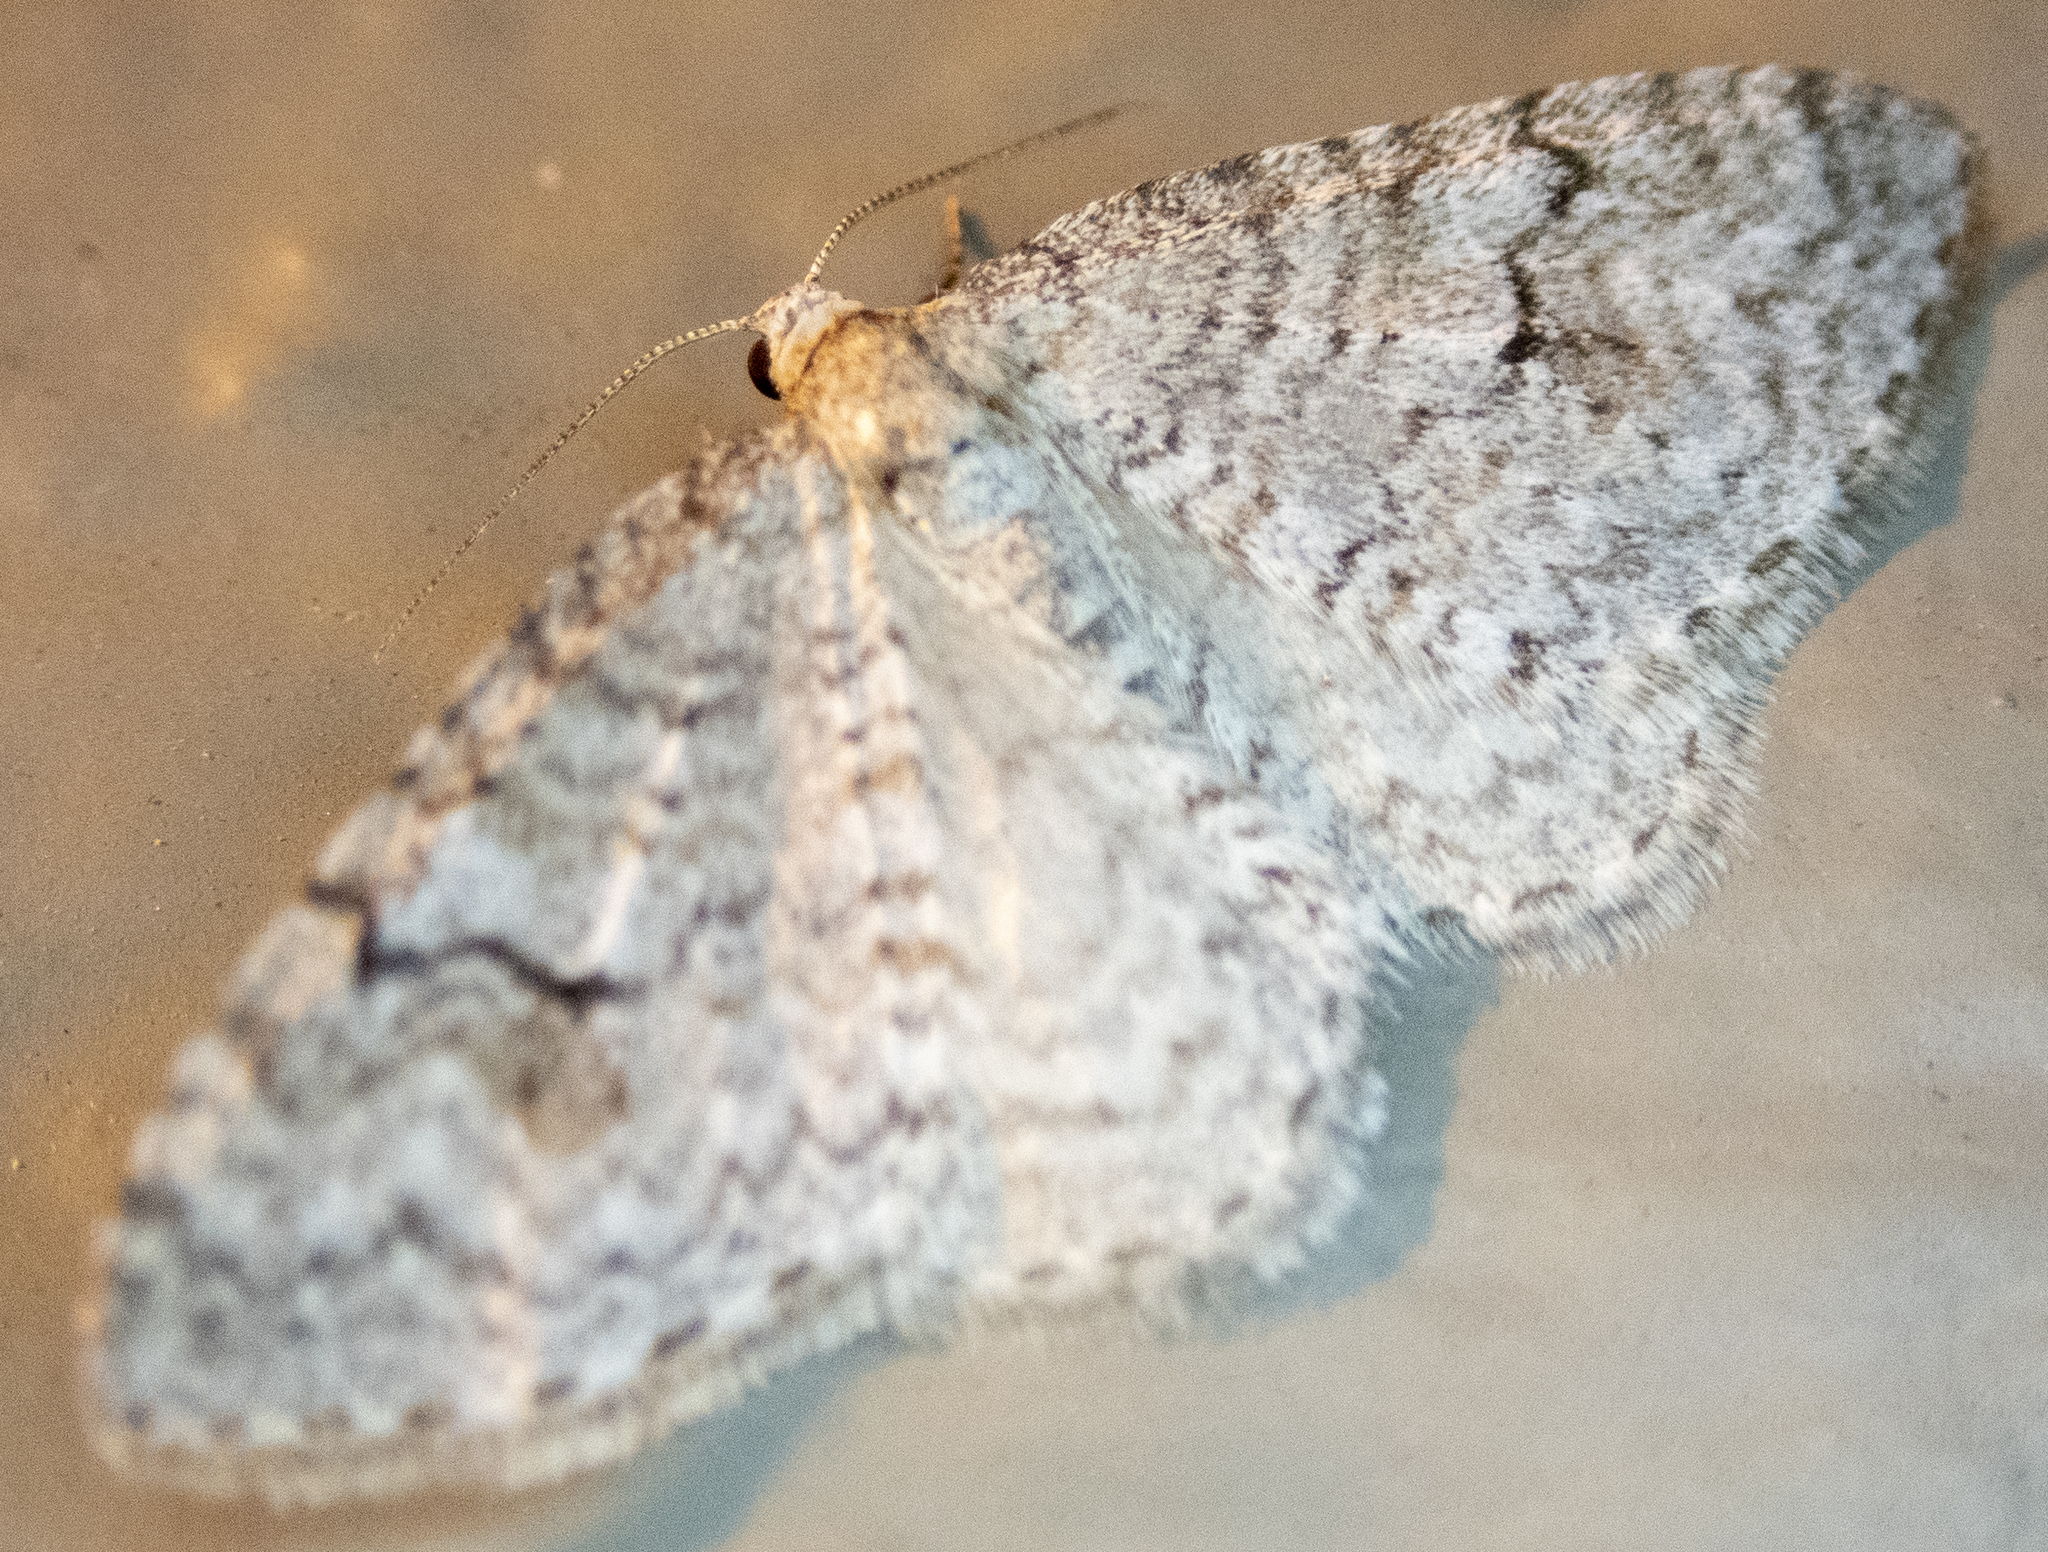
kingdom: Animalia
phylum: Arthropoda
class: Insecta
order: Lepidoptera
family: Geometridae
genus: Venusia
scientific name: Venusia comptaria
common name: Brown-shaded carpet
